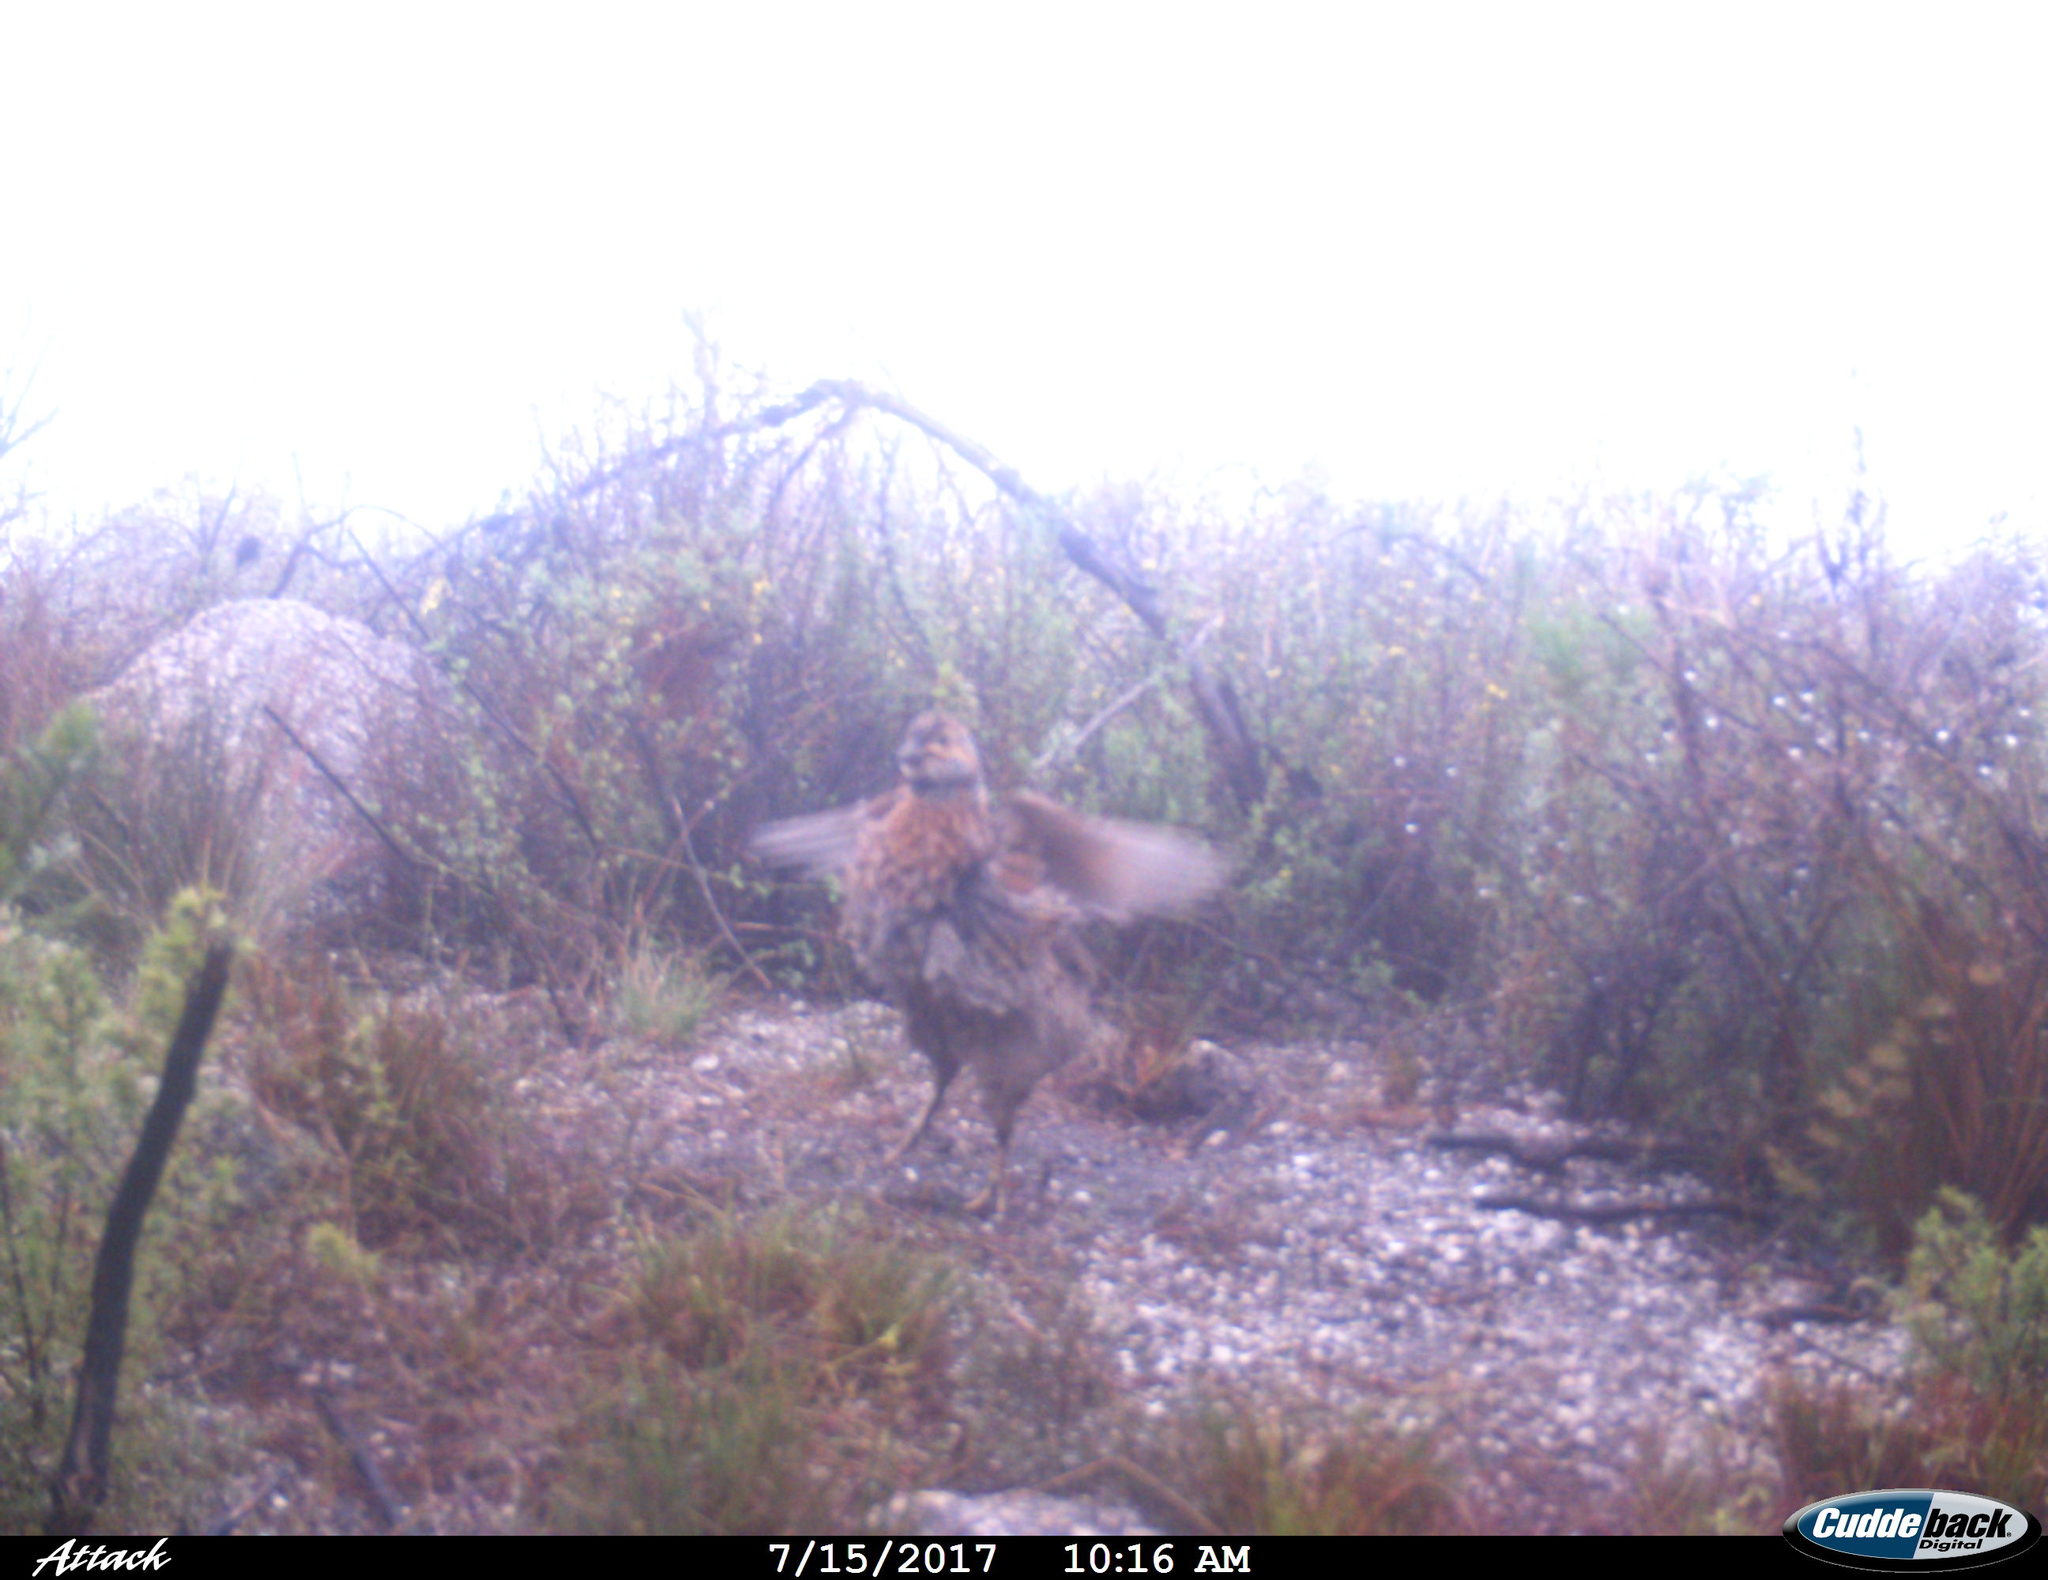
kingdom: Animalia
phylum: Chordata
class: Aves
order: Galliformes
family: Phasianidae
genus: Scleroptila
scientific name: Scleroptila afra
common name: Grey-winged francolin
